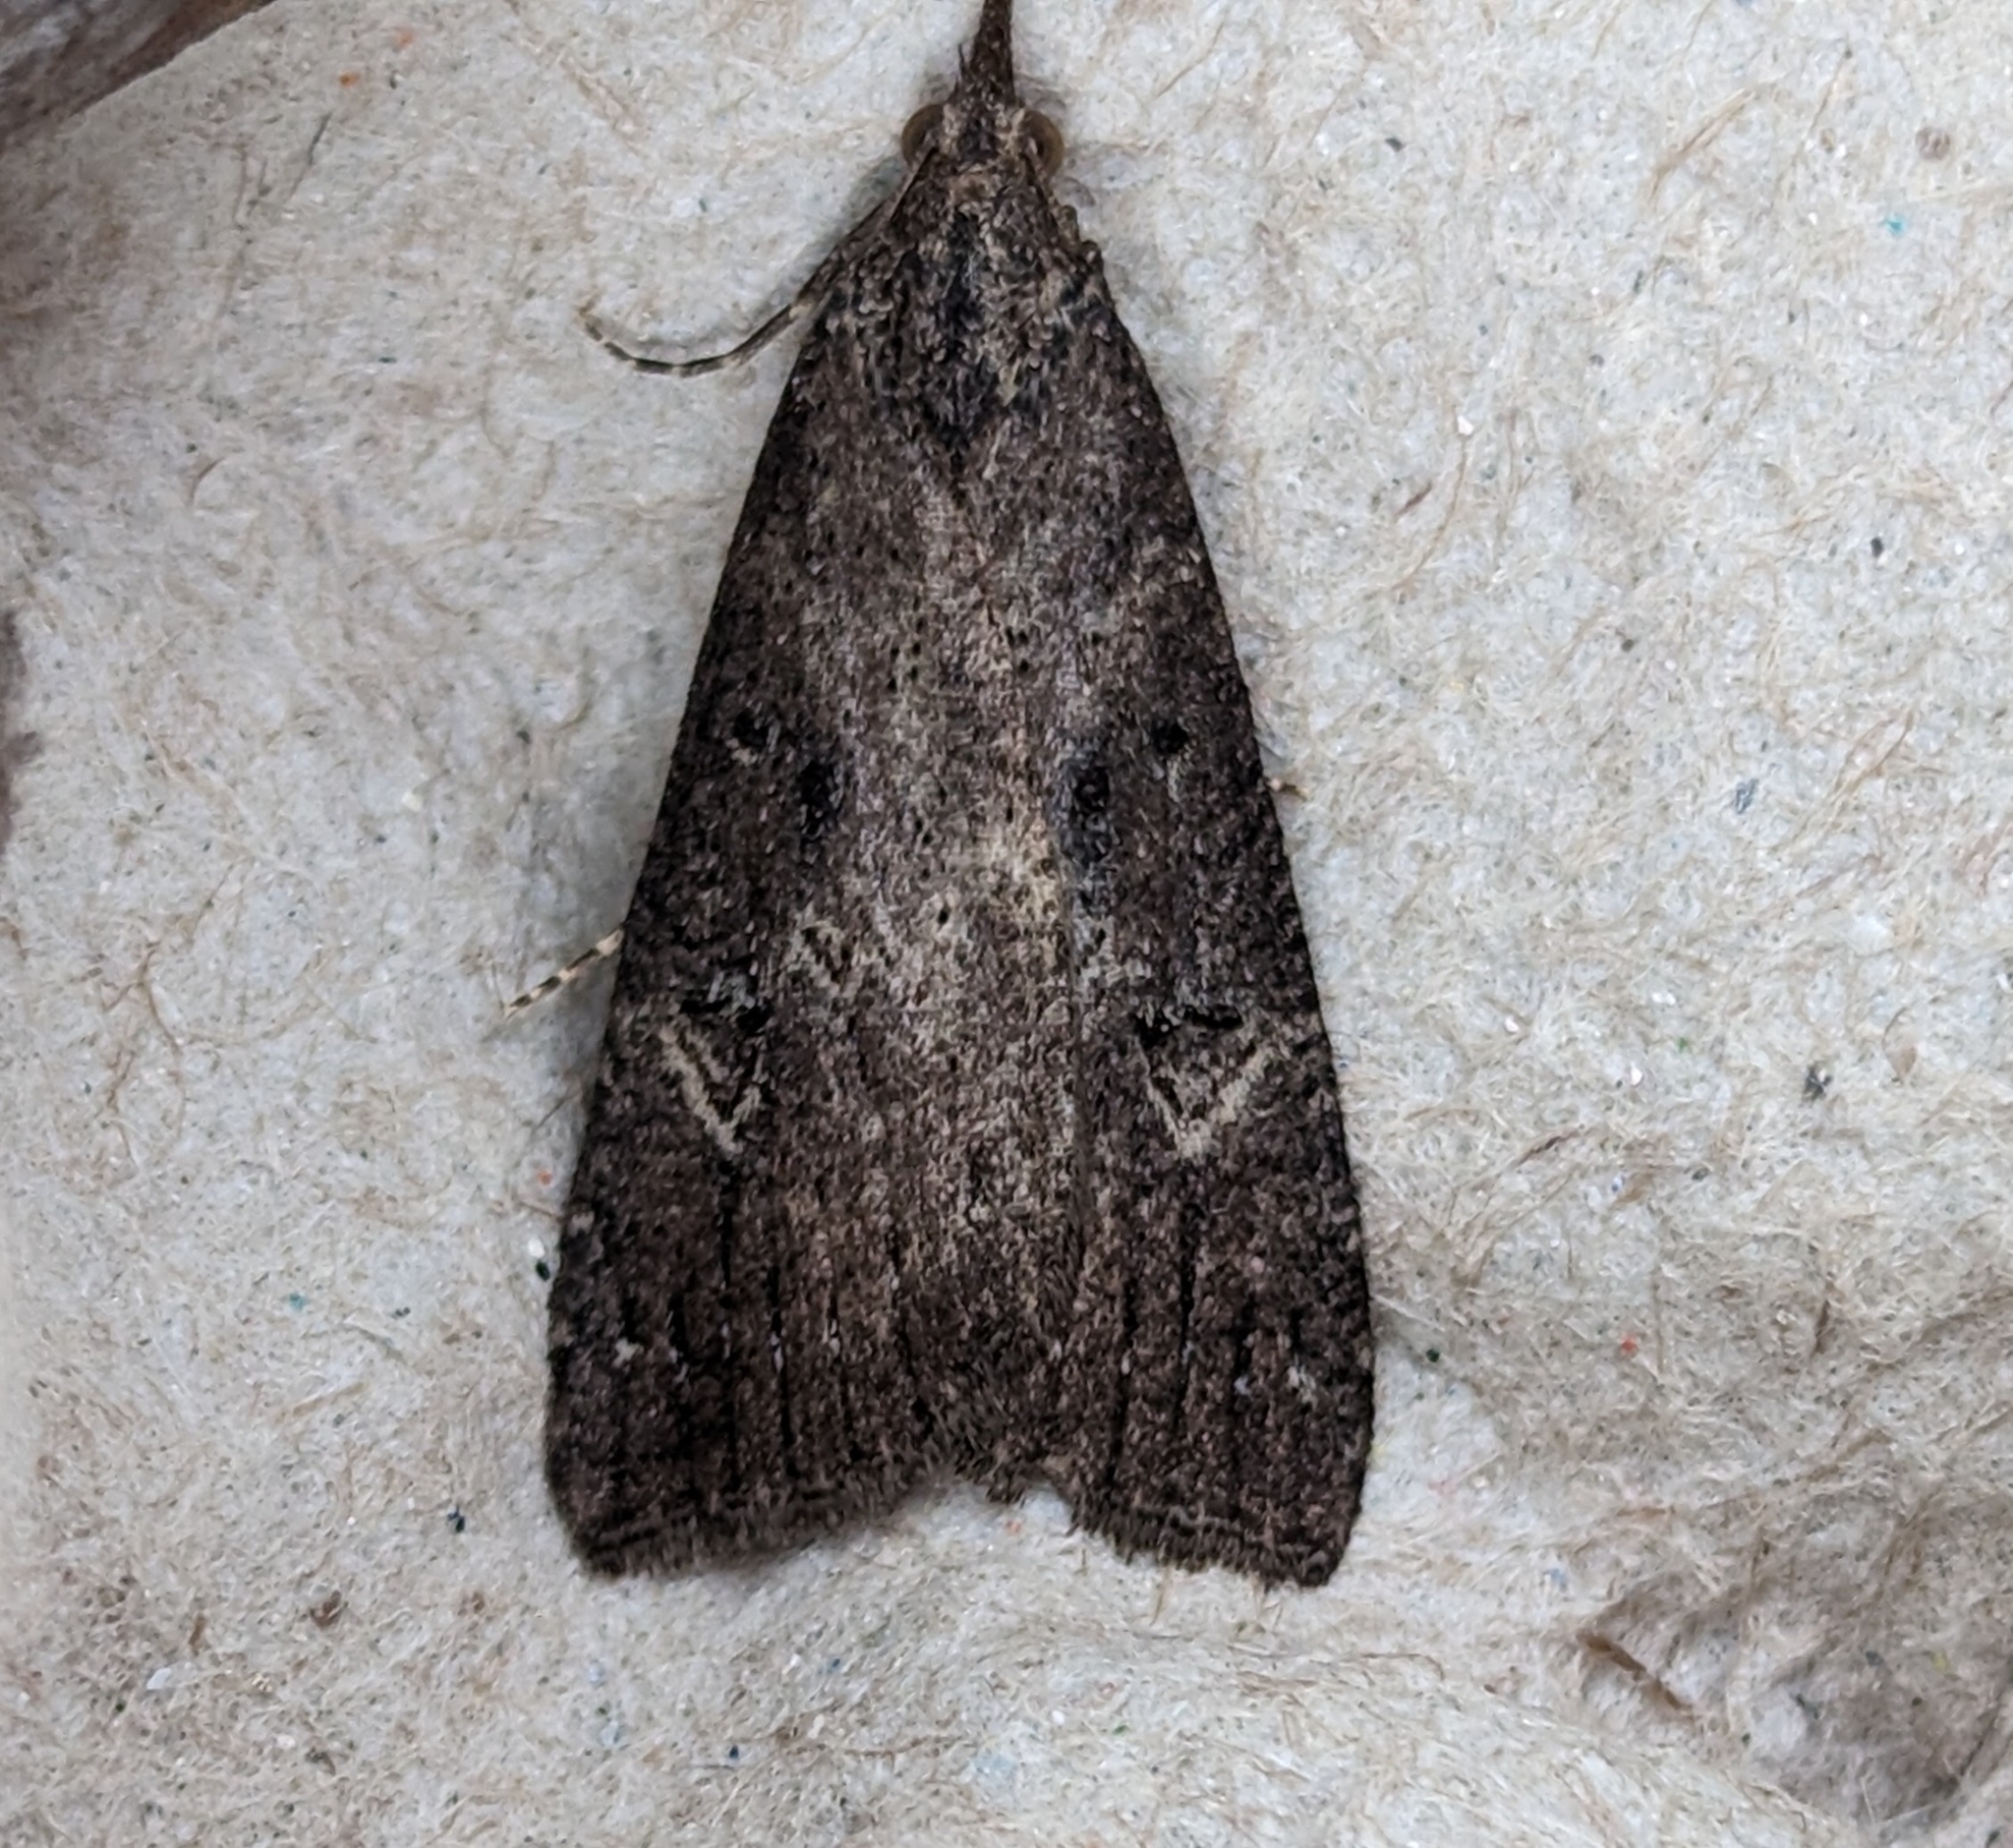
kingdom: Animalia
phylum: Arthropoda
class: Insecta
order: Lepidoptera
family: Erebidae
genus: Hypena
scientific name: Hypena humuli
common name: Hop vine snout
